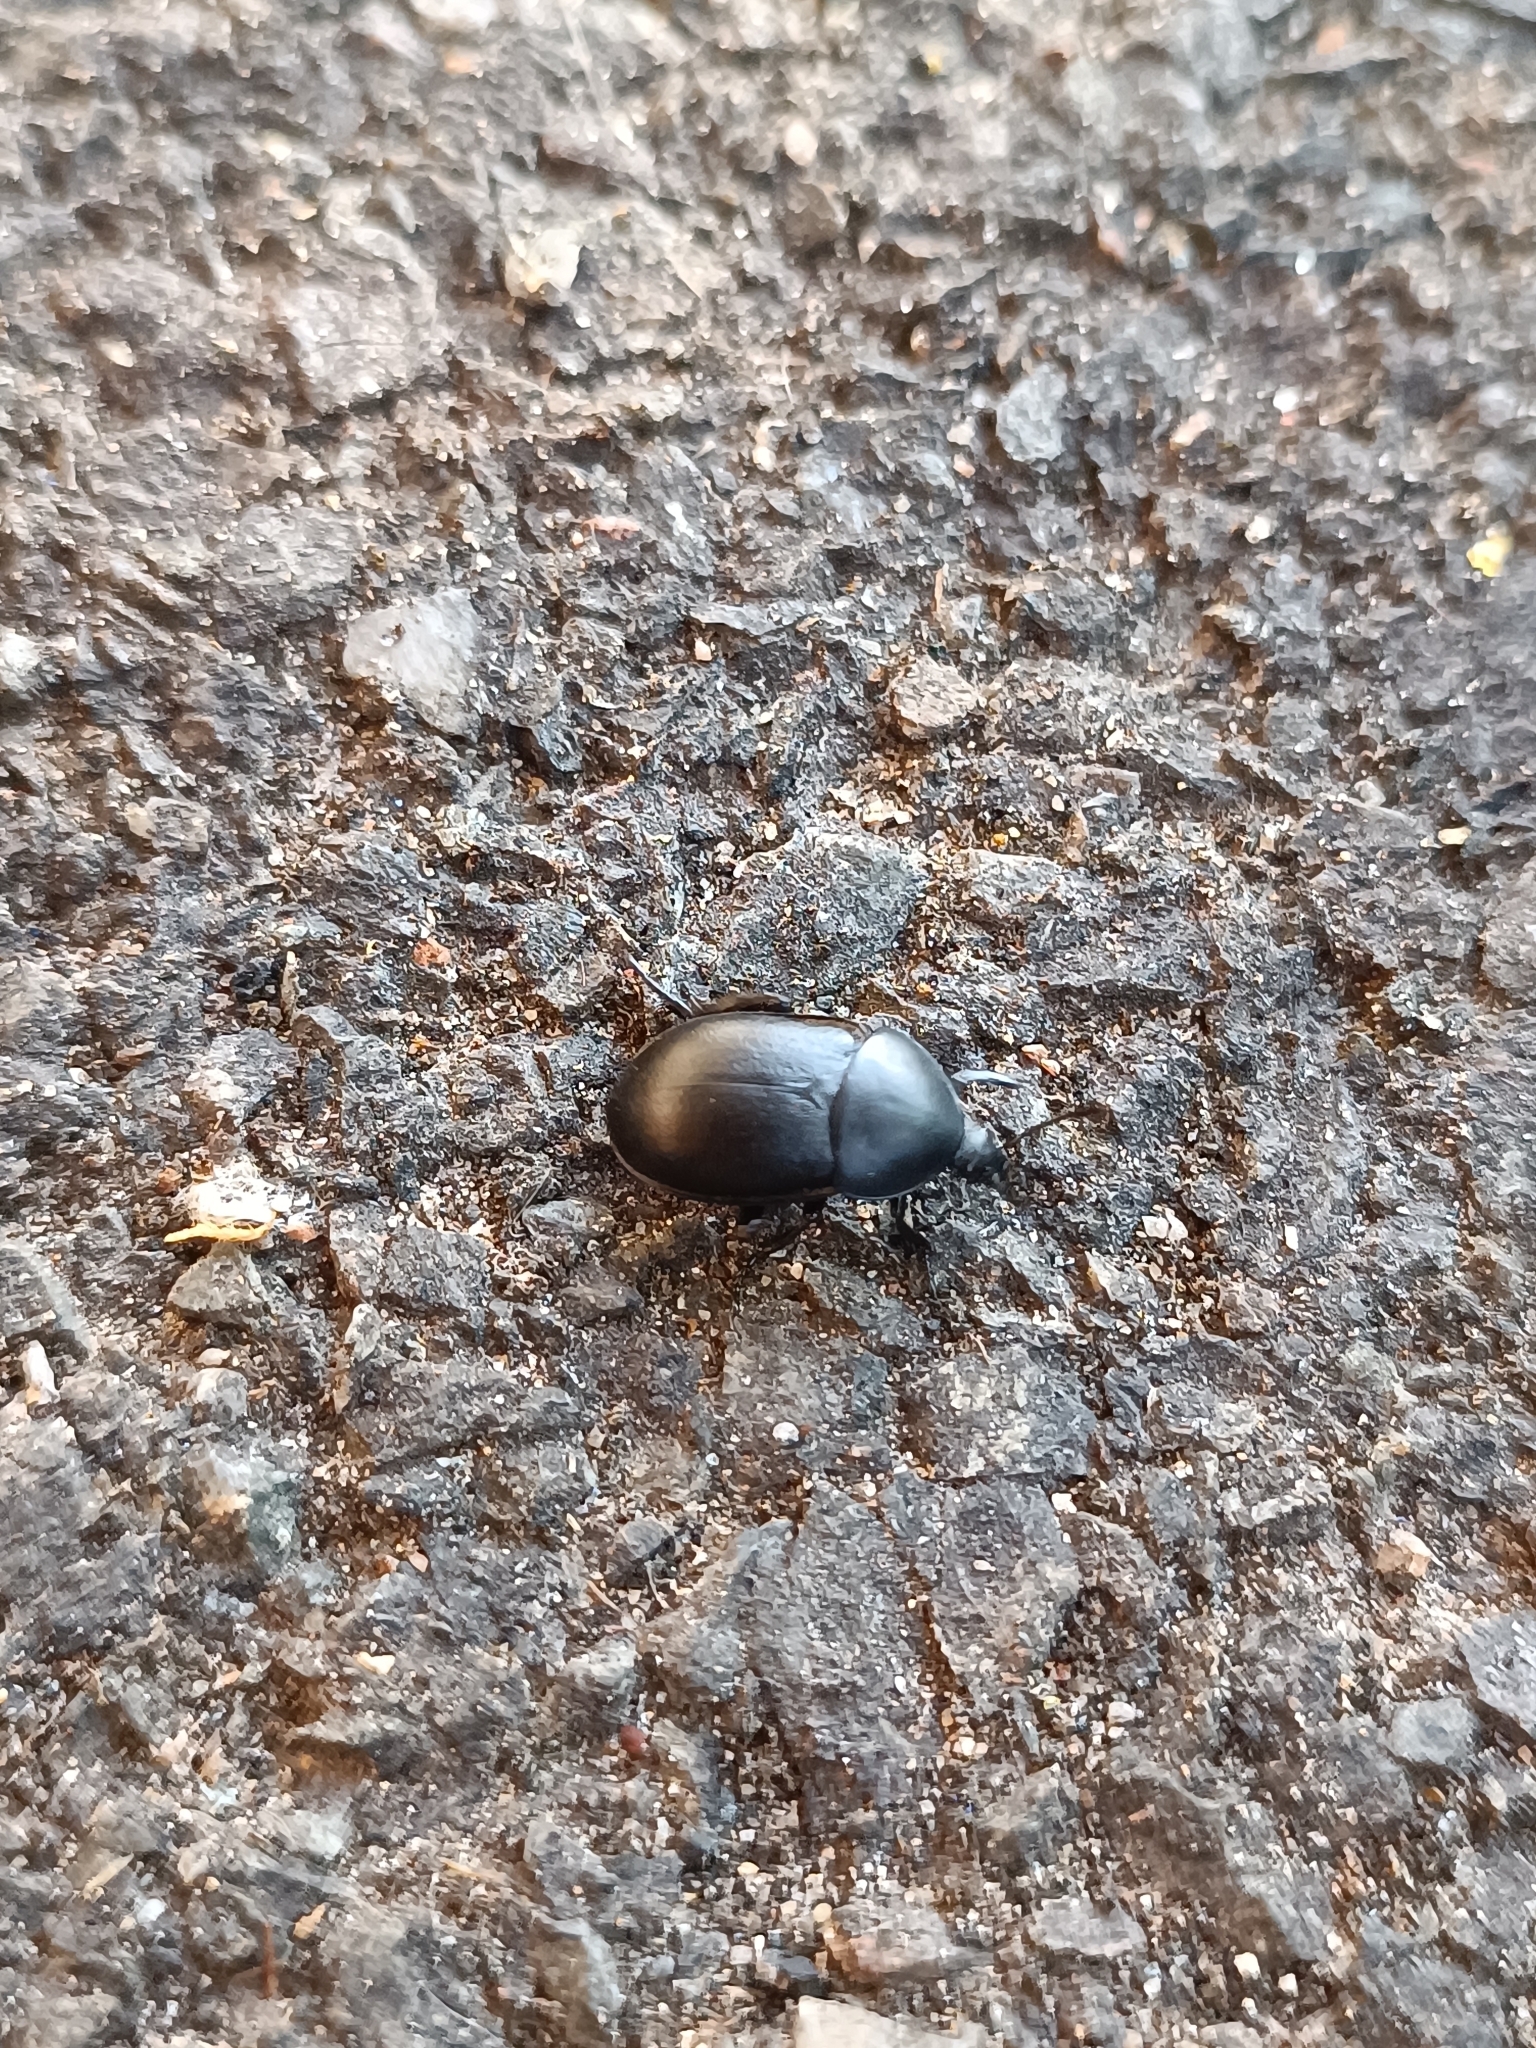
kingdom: Animalia
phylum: Arthropoda
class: Insecta
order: Coleoptera
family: Staphylinidae
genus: Silpha
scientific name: Silpha laevigata
